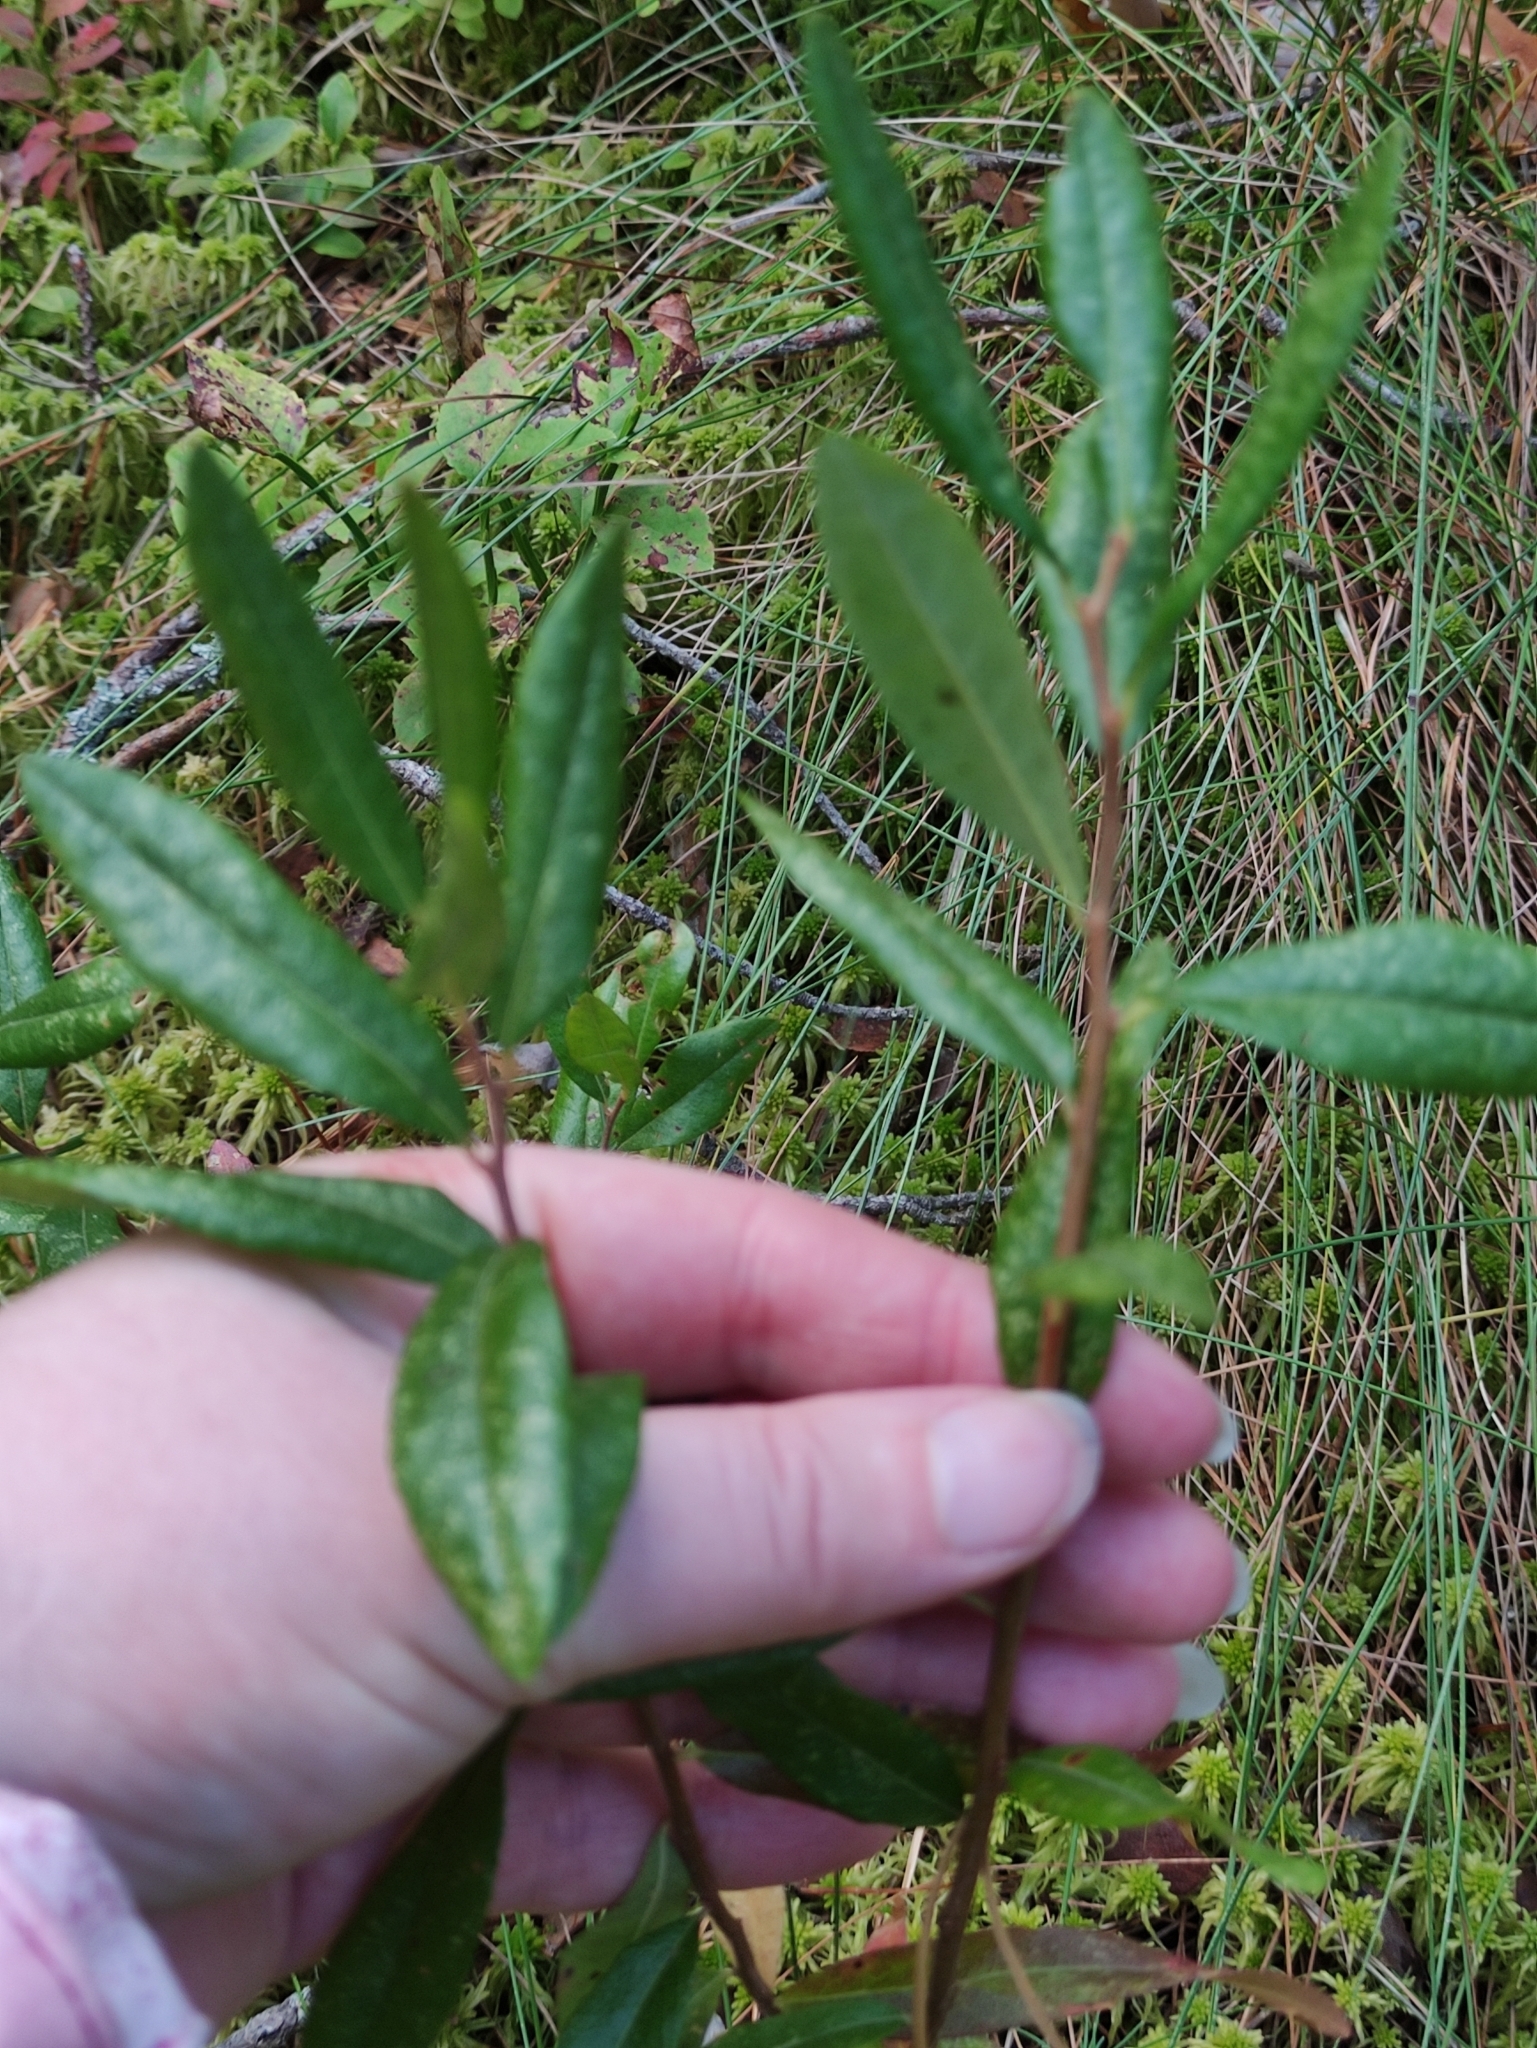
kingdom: Plantae
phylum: Tracheophyta
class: Magnoliopsida
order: Ericales
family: Ericaceae
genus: Chamaedaphne
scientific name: Chamaedaphne calyculata
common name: Leatherleaf
